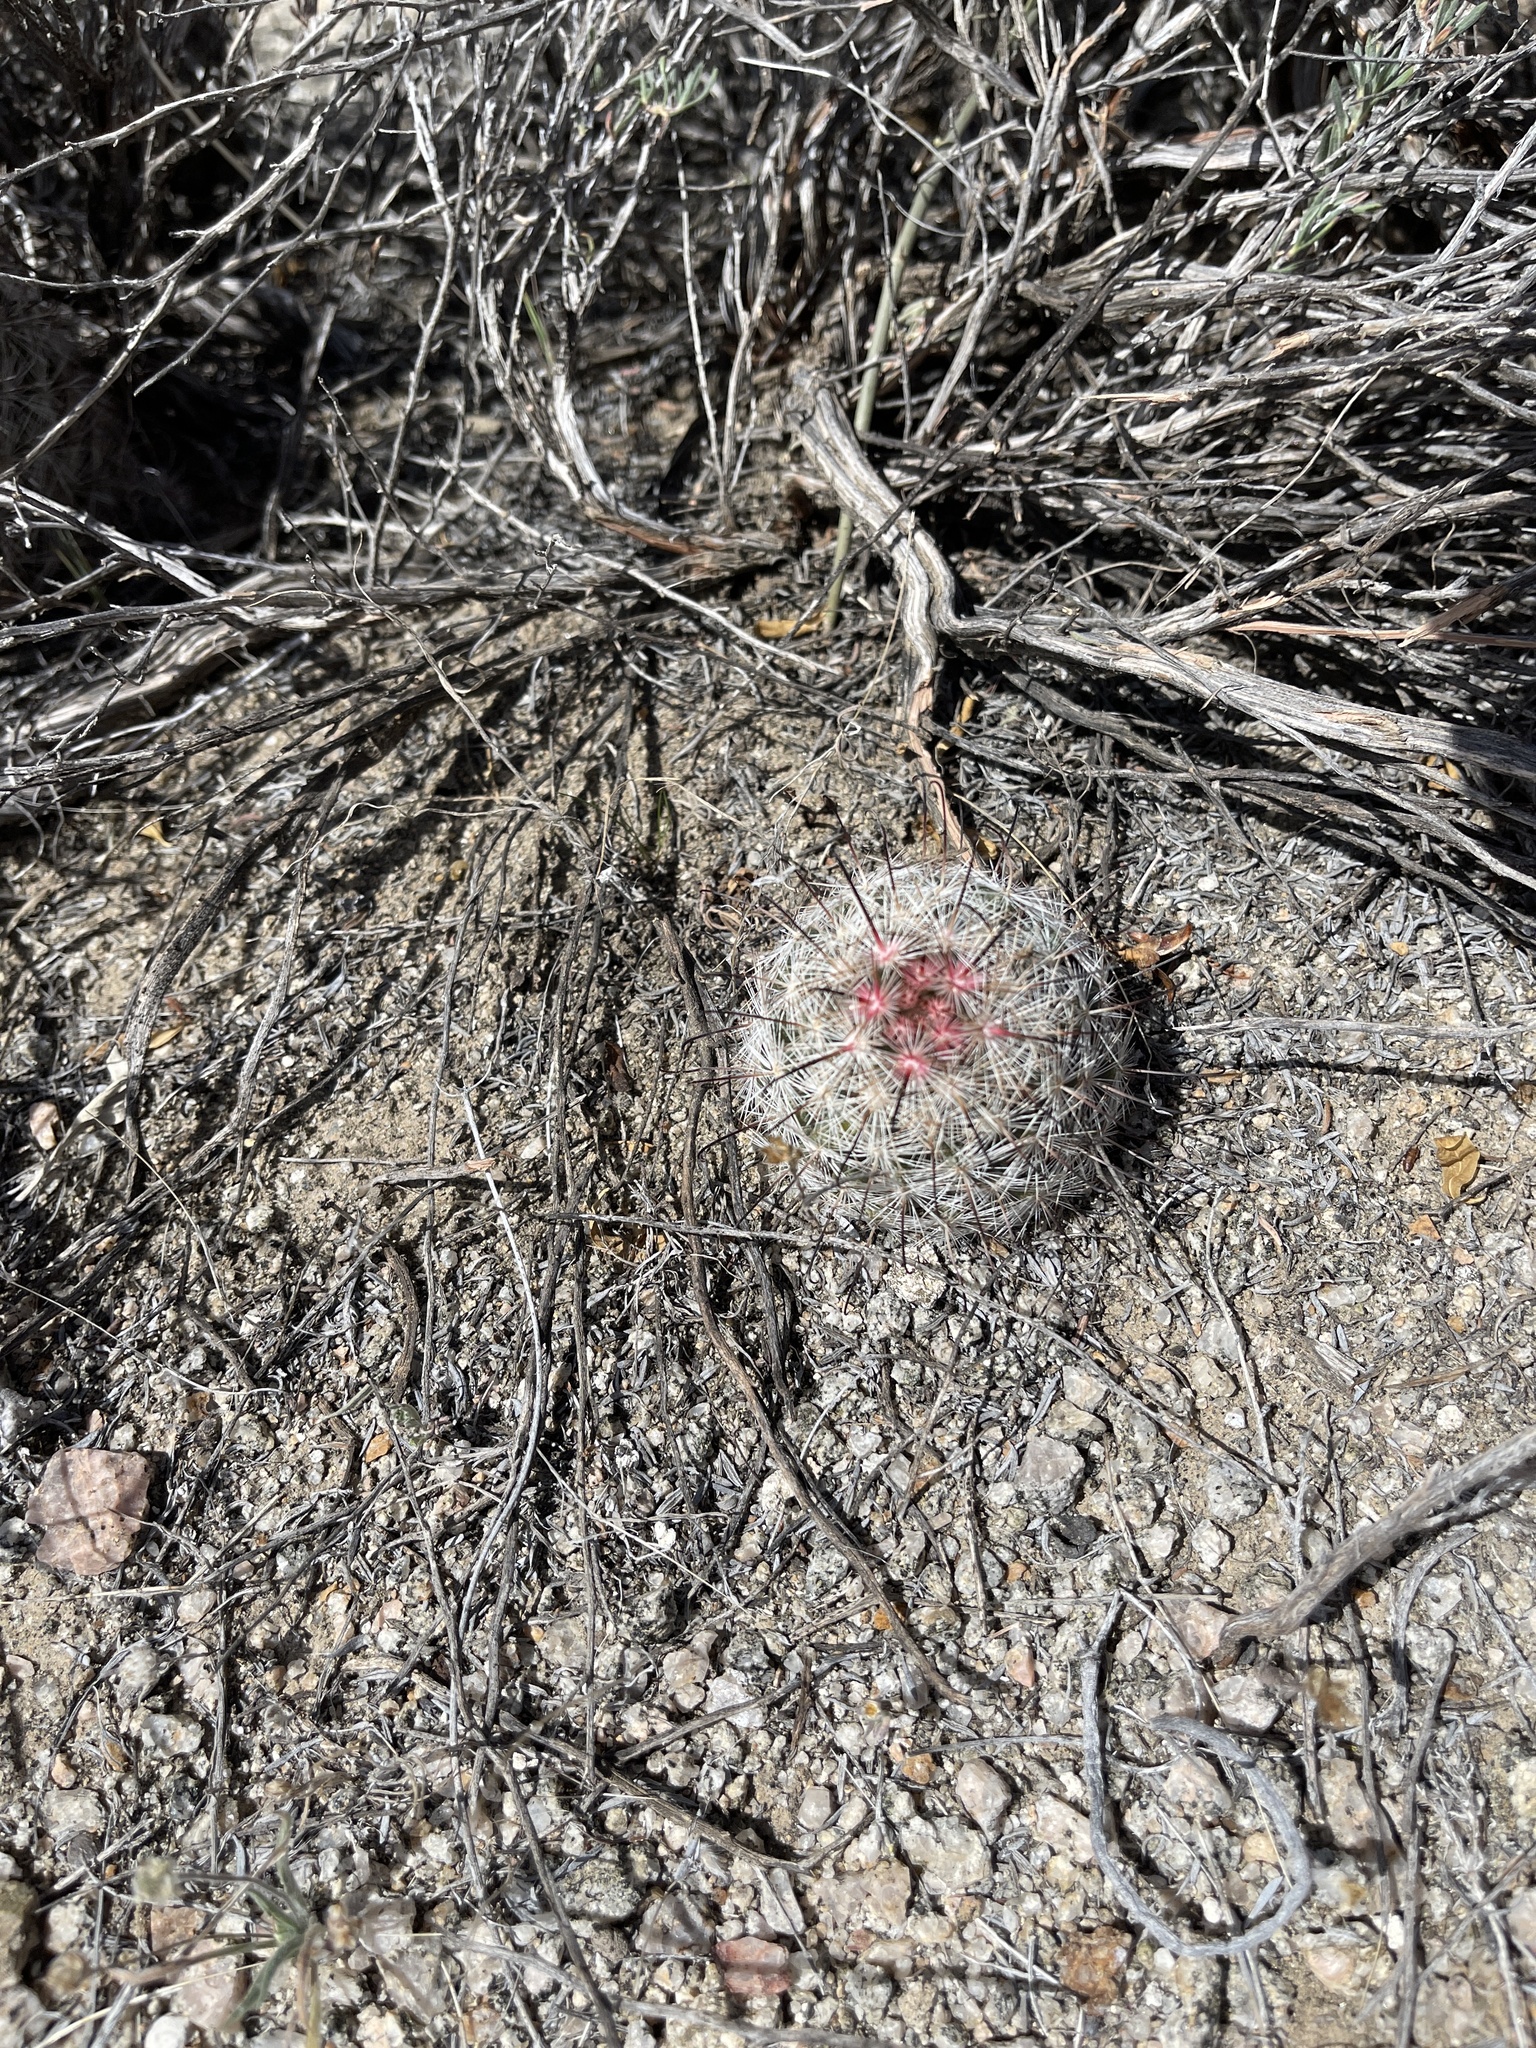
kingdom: Plantae
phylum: Tracheophyta
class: Magnoliopsida
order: Caryophyllales
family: Cactaceae
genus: Cochemiea
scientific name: Cochemiea tetrancistra
